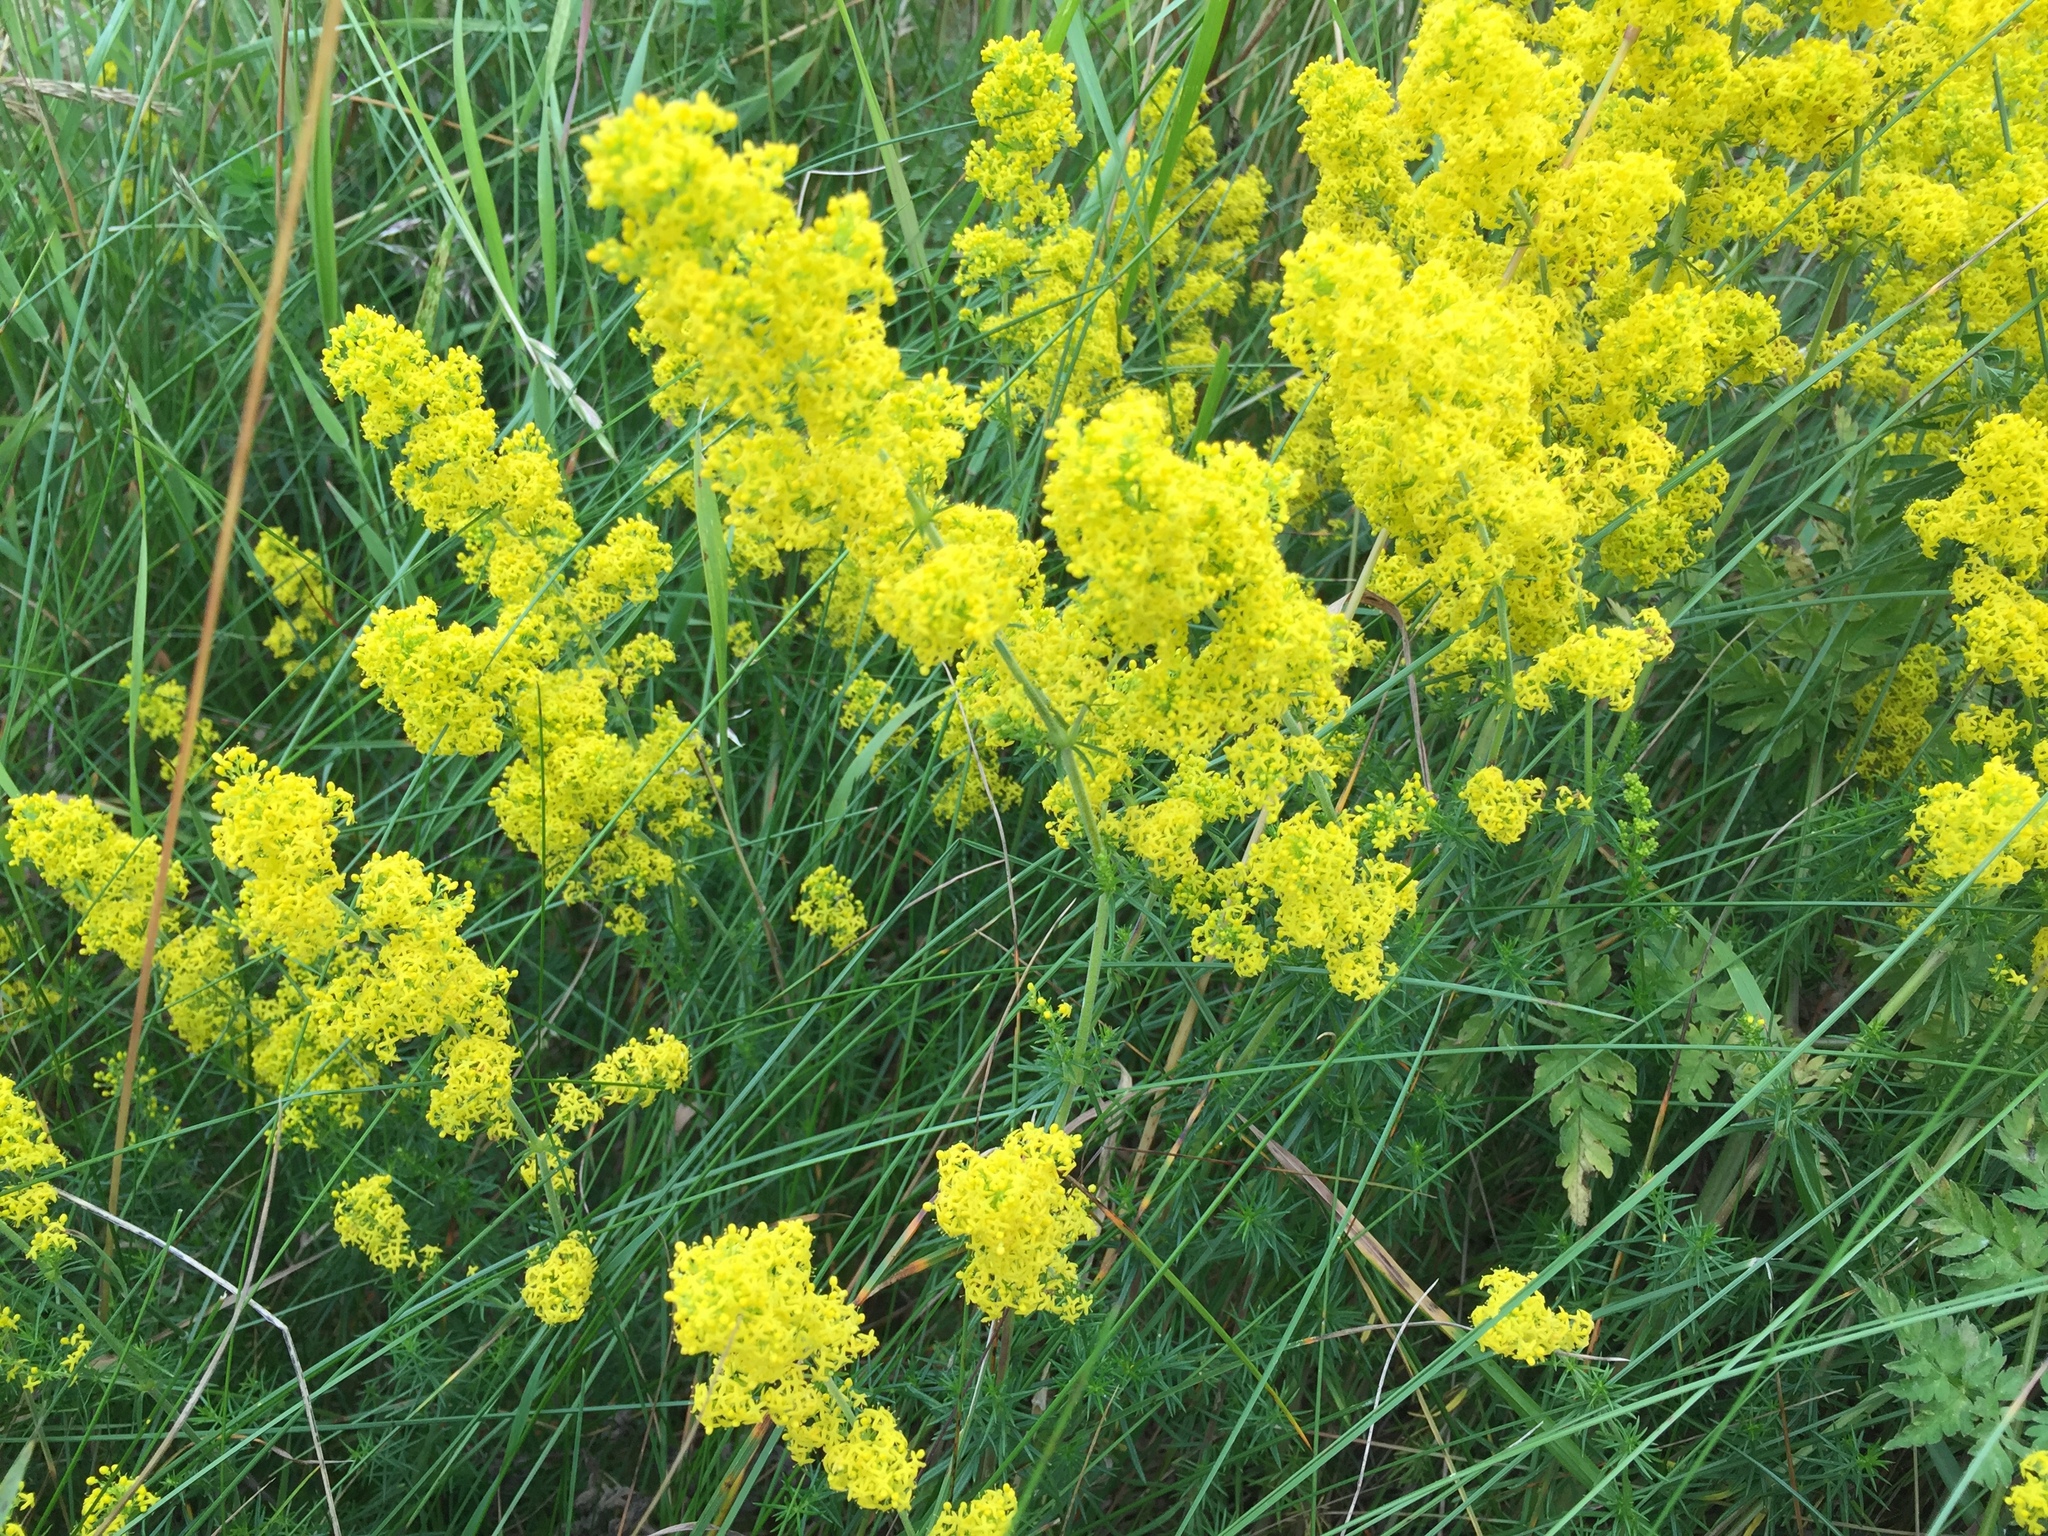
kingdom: Plantae
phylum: Tracheophyta
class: Magnoliopsida
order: Gentianales
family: Rubiaceae
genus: Galium
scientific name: Galium verum
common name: Lady's bedstraw
